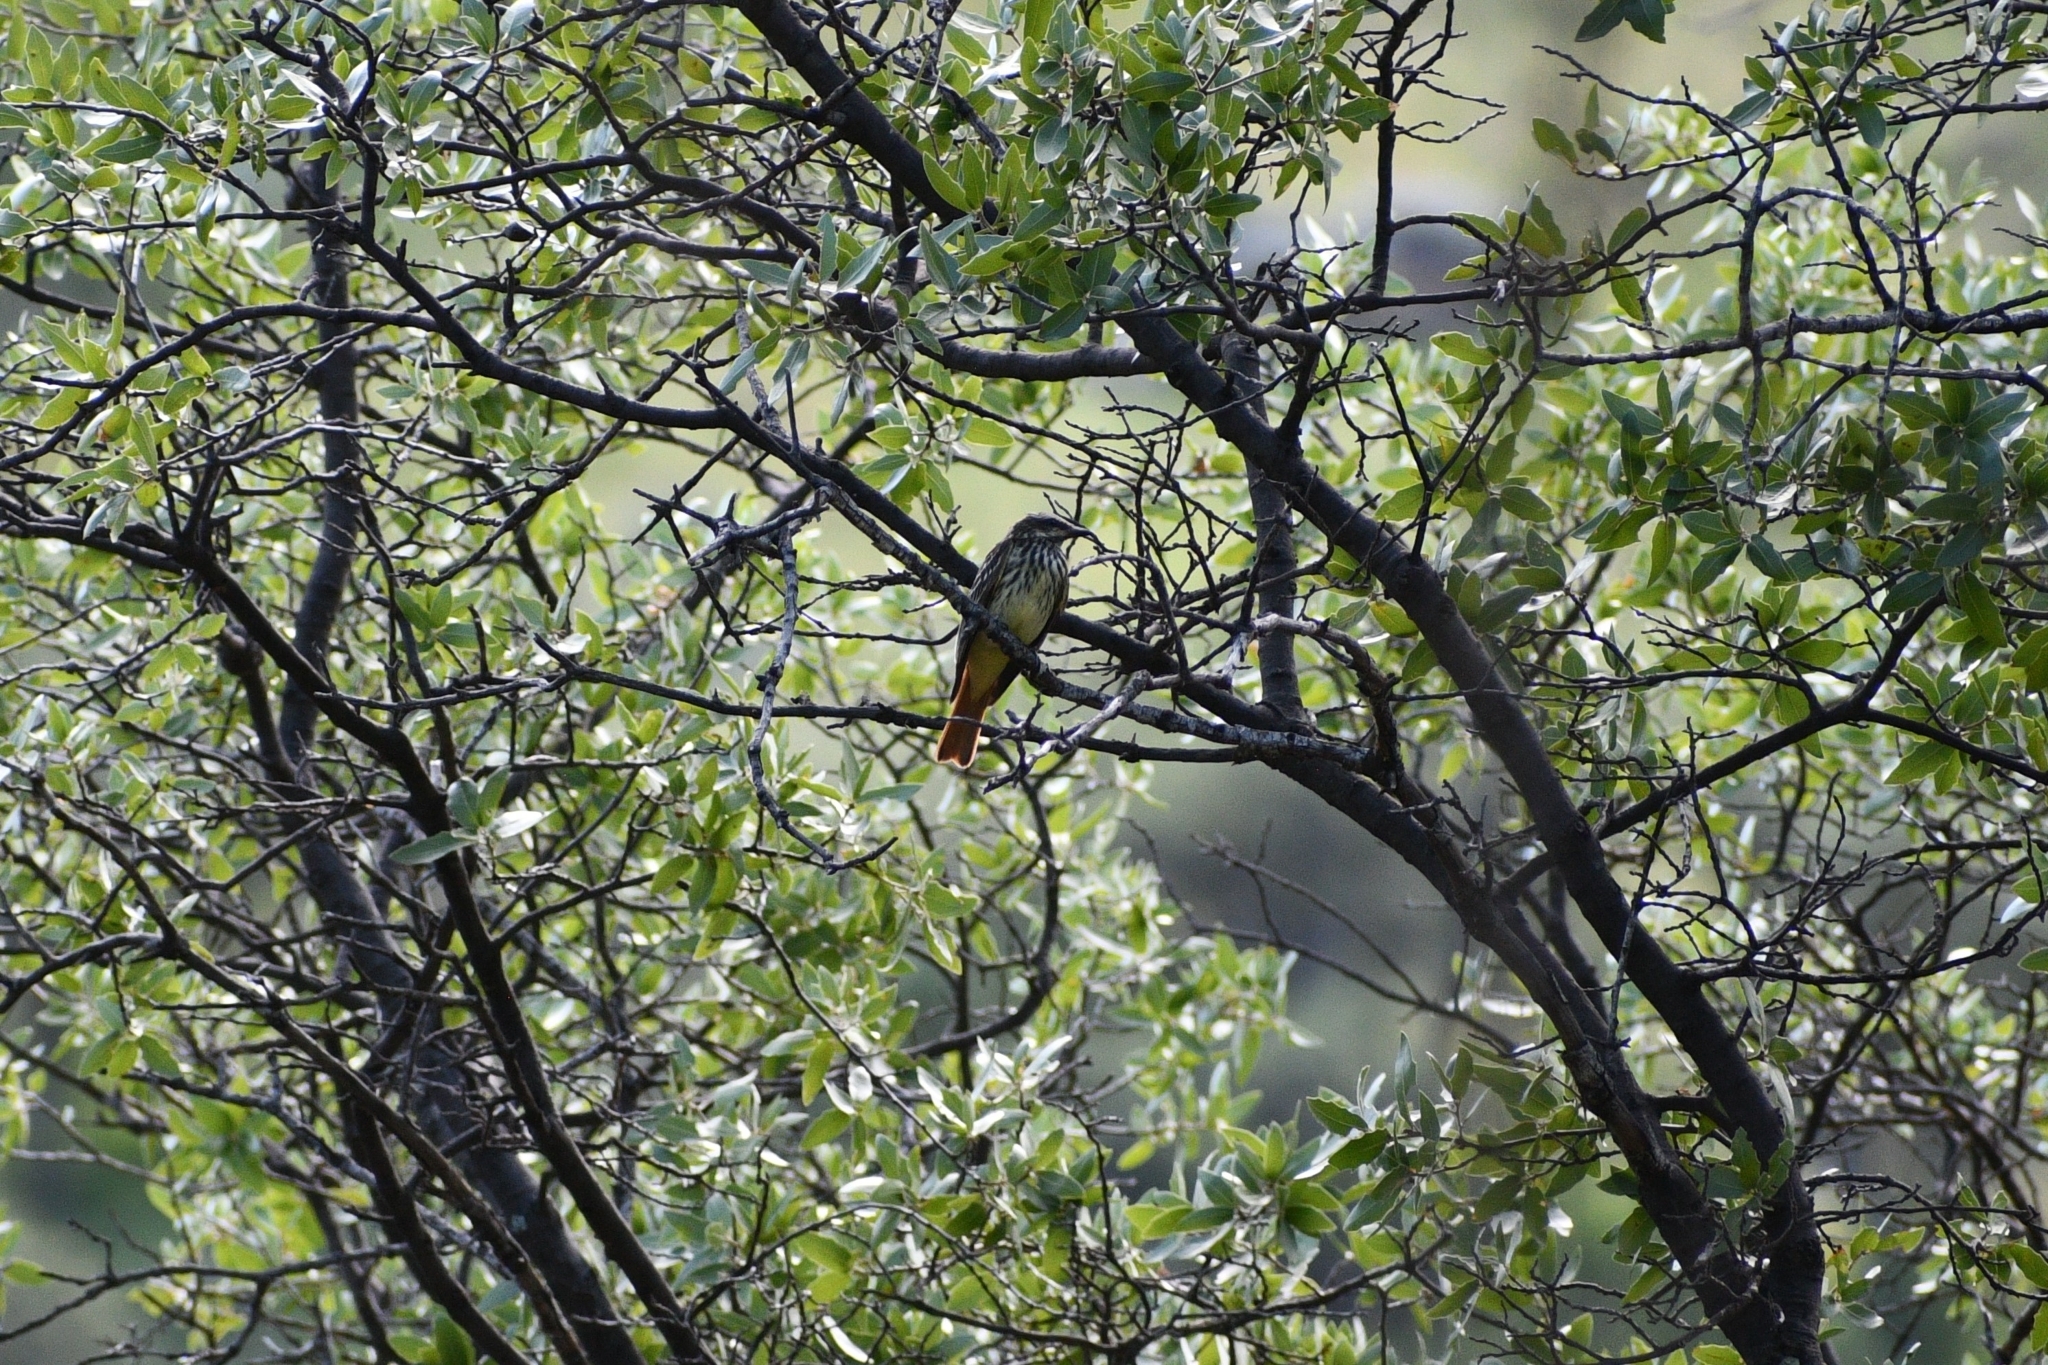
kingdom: Animalia
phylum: Chordata
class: Aves
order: Passeriformes
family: Tyrannidae
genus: Myiodynastes
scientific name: Myiodynastes luteiventris
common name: Sulphur-bellied flycatcher
